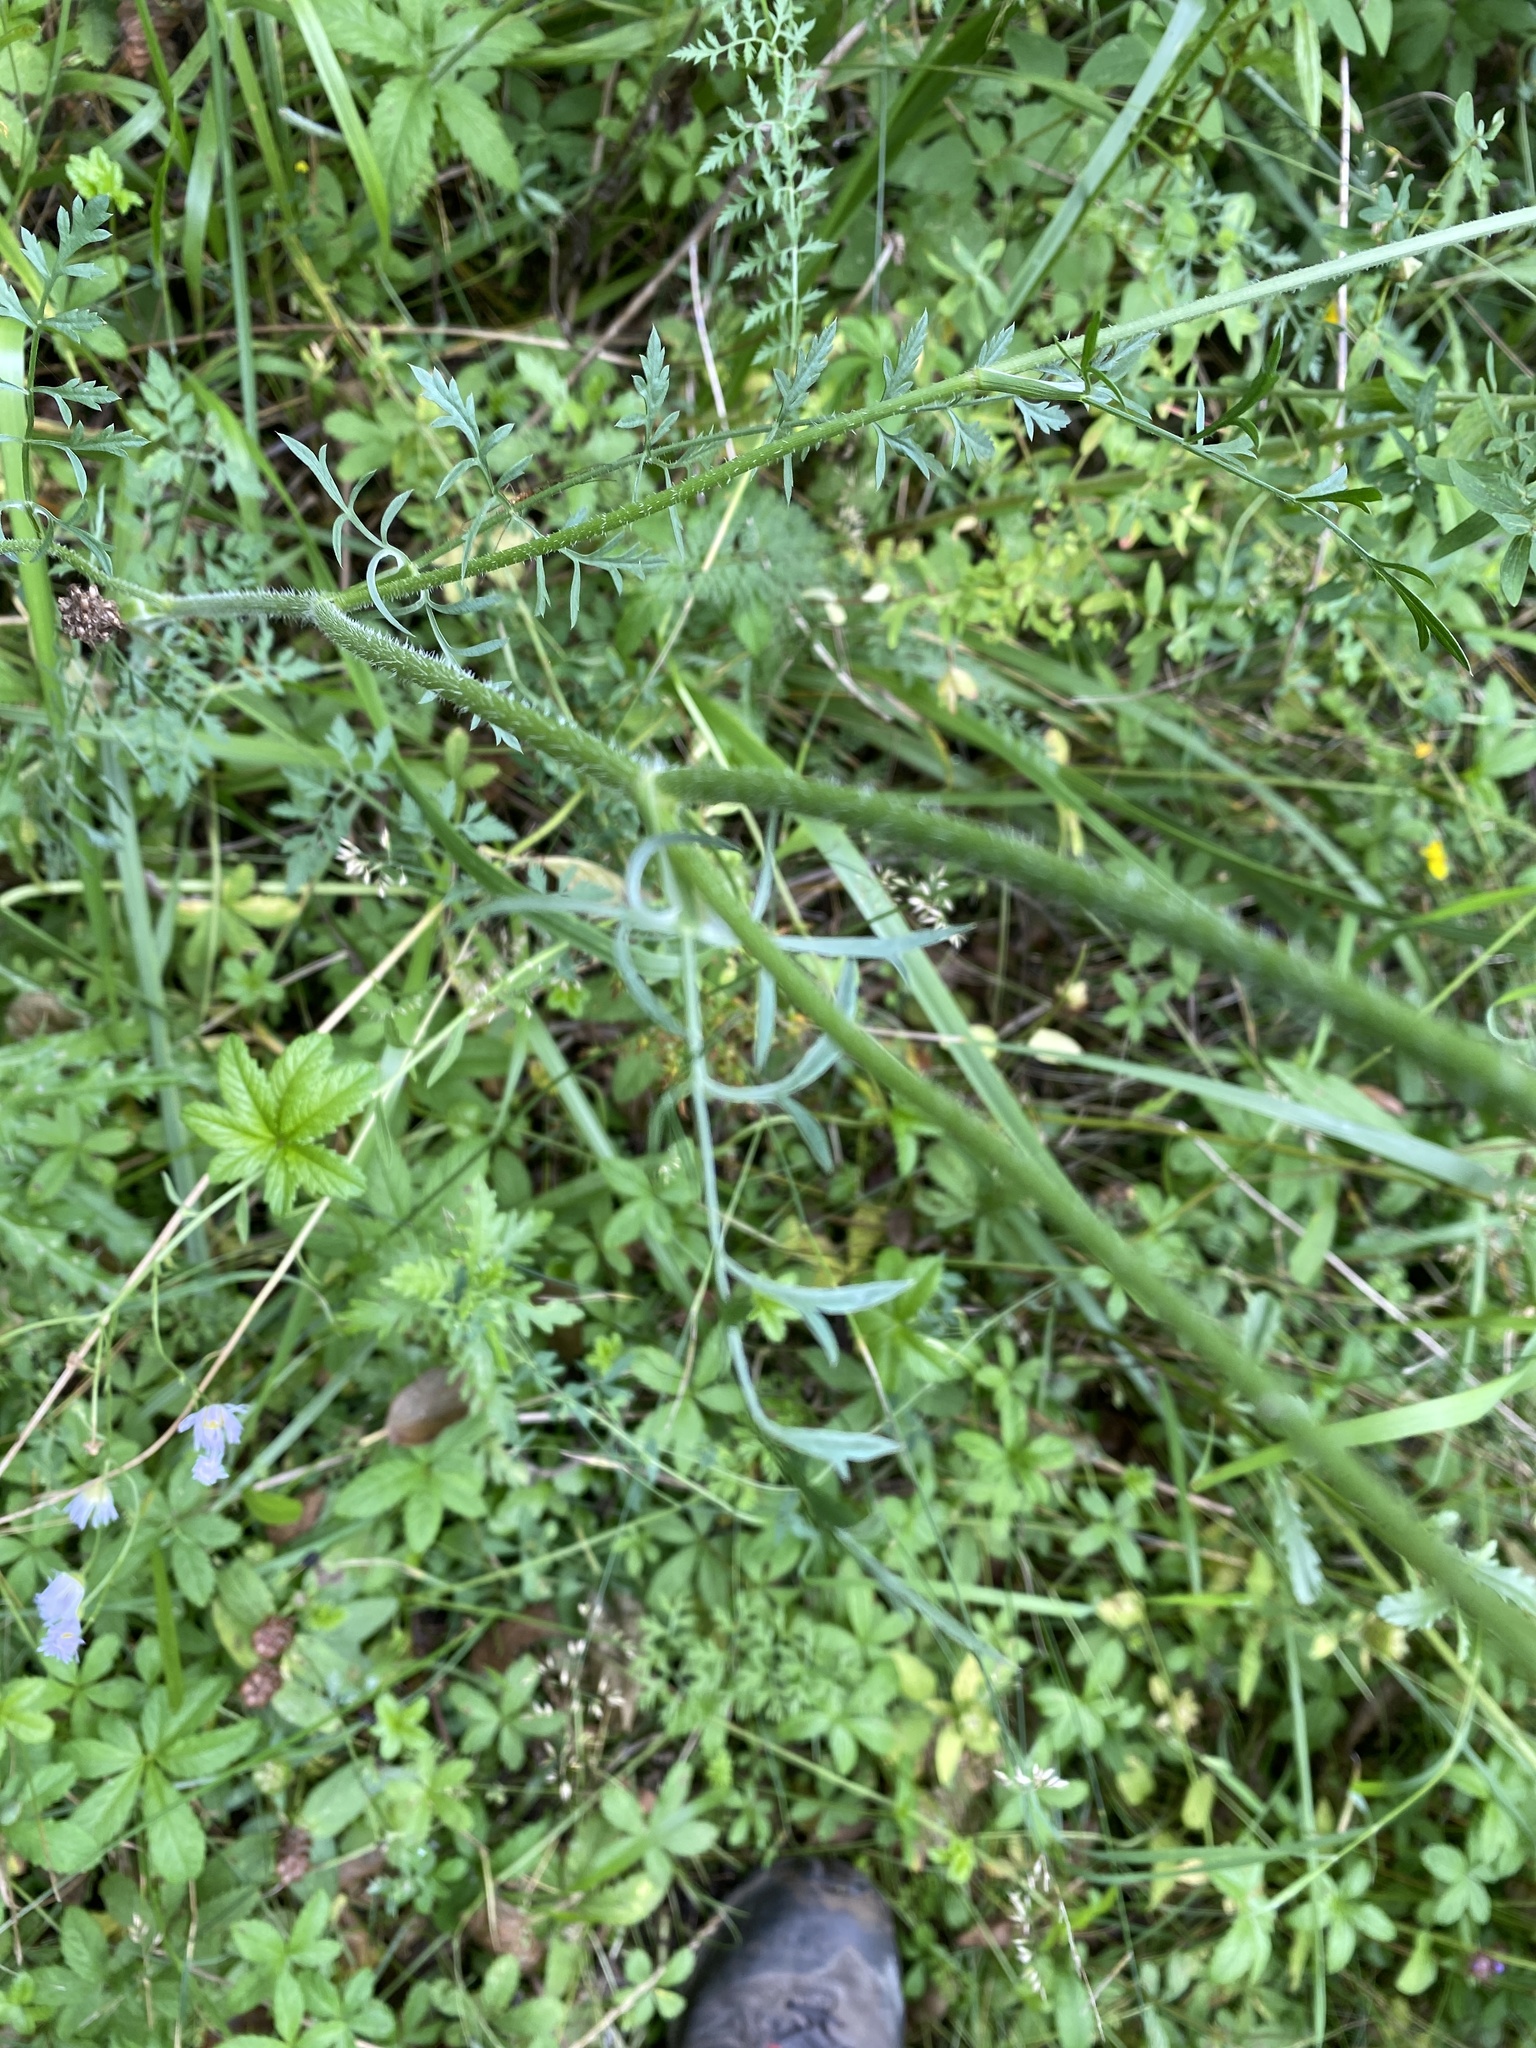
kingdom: Plantae
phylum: Tracheophyta
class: Magnoliopsida
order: Apiales
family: Apiaceae
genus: Daucus
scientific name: Daucus carota
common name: Wild carrot
